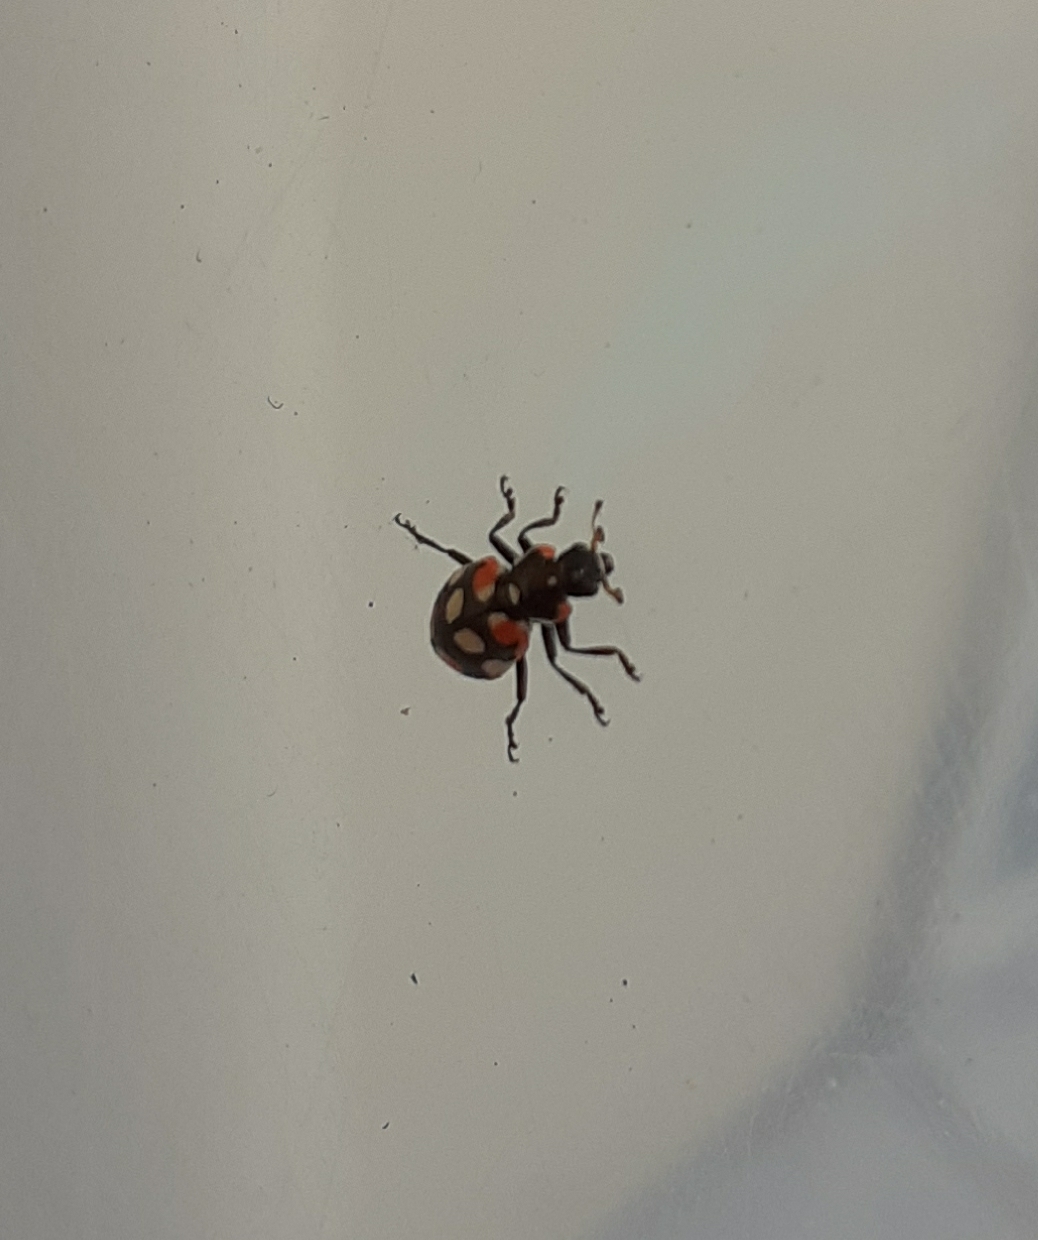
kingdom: Animalia
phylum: Arthropoda
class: Insecta
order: Coleoptera
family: Coccinellidae
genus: Eriopis
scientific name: Eriopis connexa
